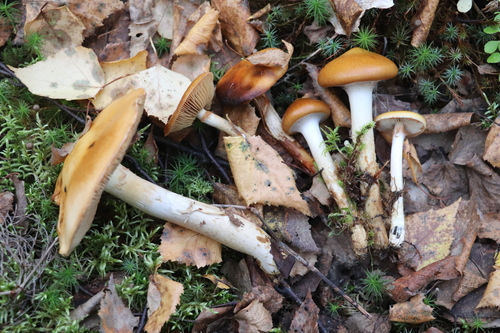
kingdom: Fungi
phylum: Basidiomycota
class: Agaricomycetes
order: Agaricales
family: Cortinariaceae
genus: Cortinarius
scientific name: Cortinarius trivialis
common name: Girdled webcap
